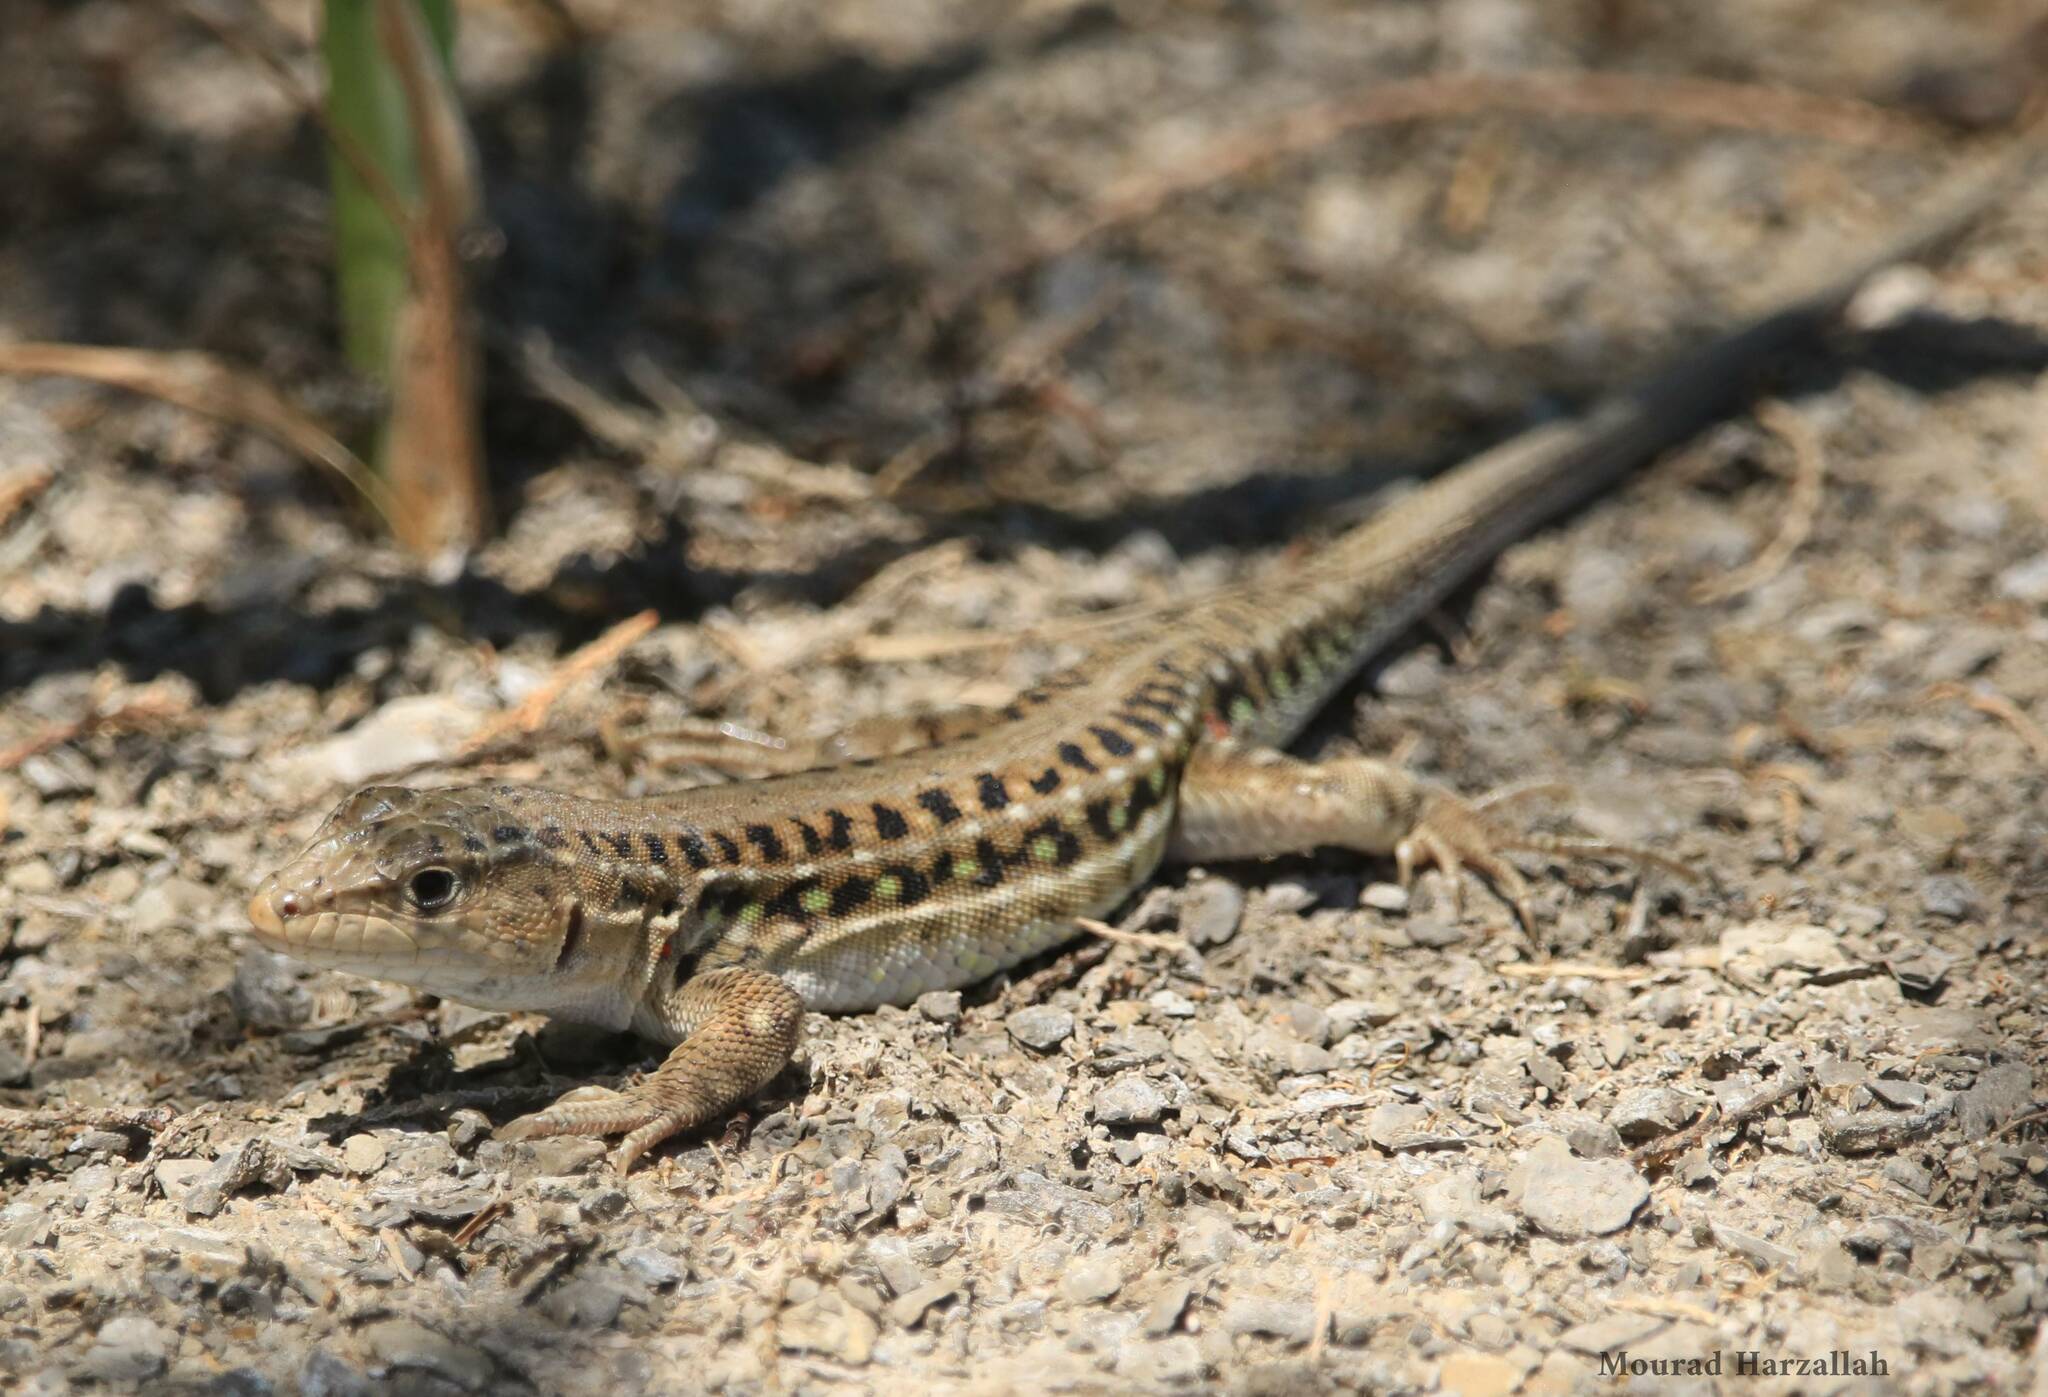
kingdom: Animalia
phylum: Chordata
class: Squamata
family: Lacertidae
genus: Acanthodactylus
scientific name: Acanthodactylus erythrurus
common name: Spiny-footed lizard
